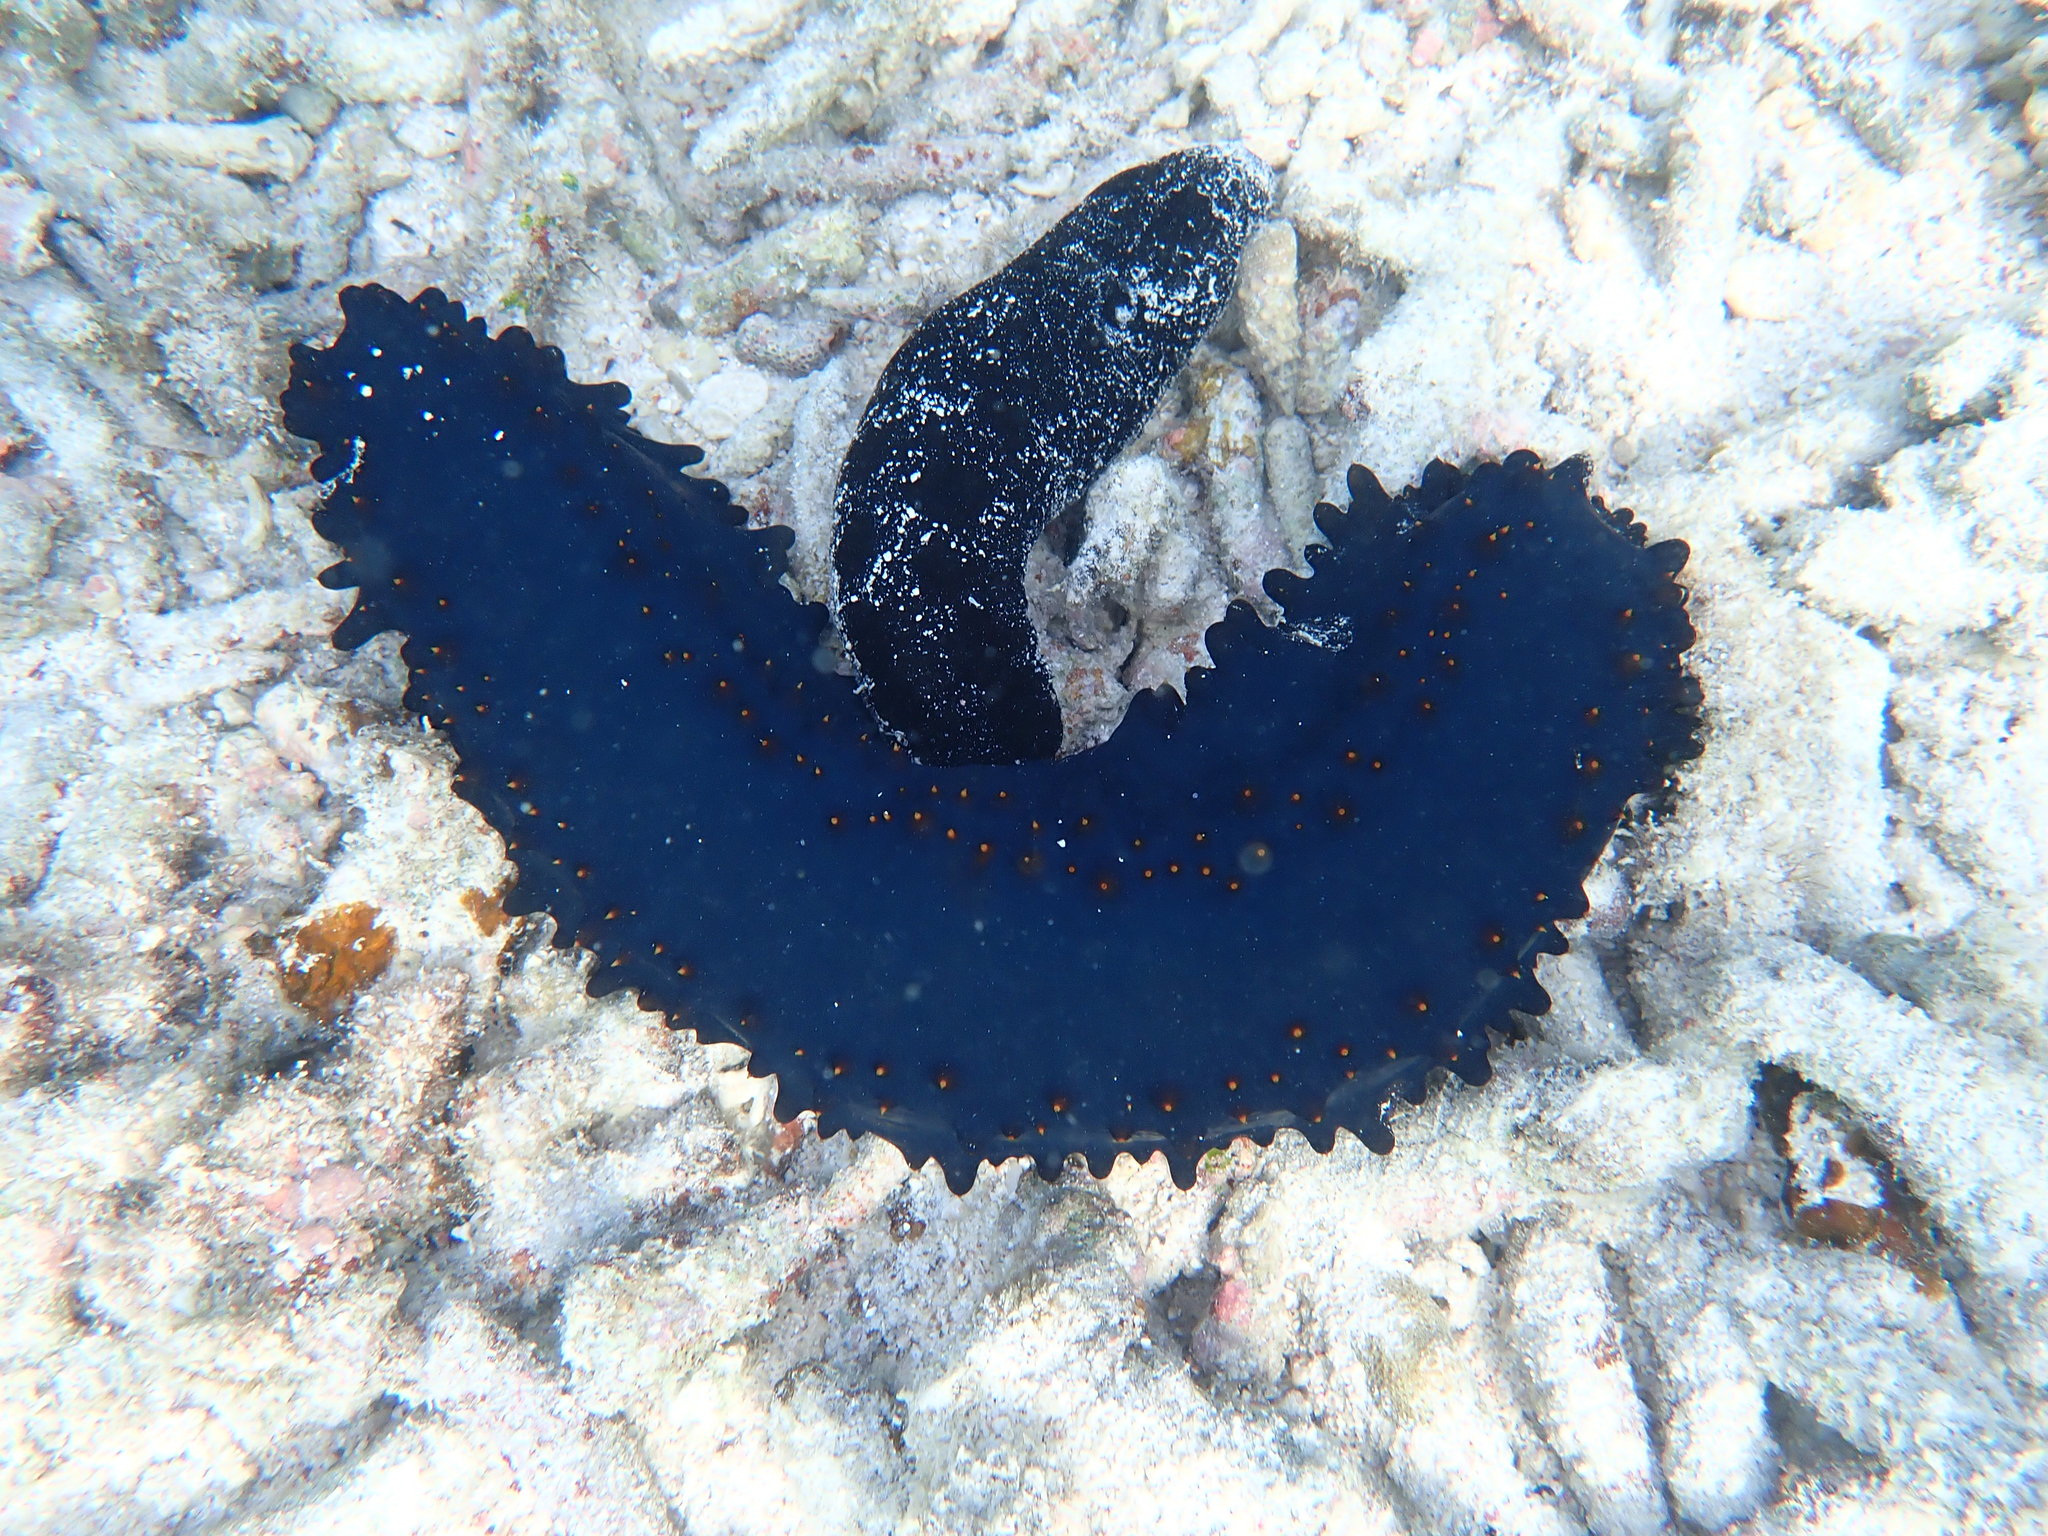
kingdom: Animalia
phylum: Echinodermata
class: Holothuroidea
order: Synallactida
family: Stichopodidae
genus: Stichopus
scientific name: Stichopus chloronotus
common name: Greenfish
